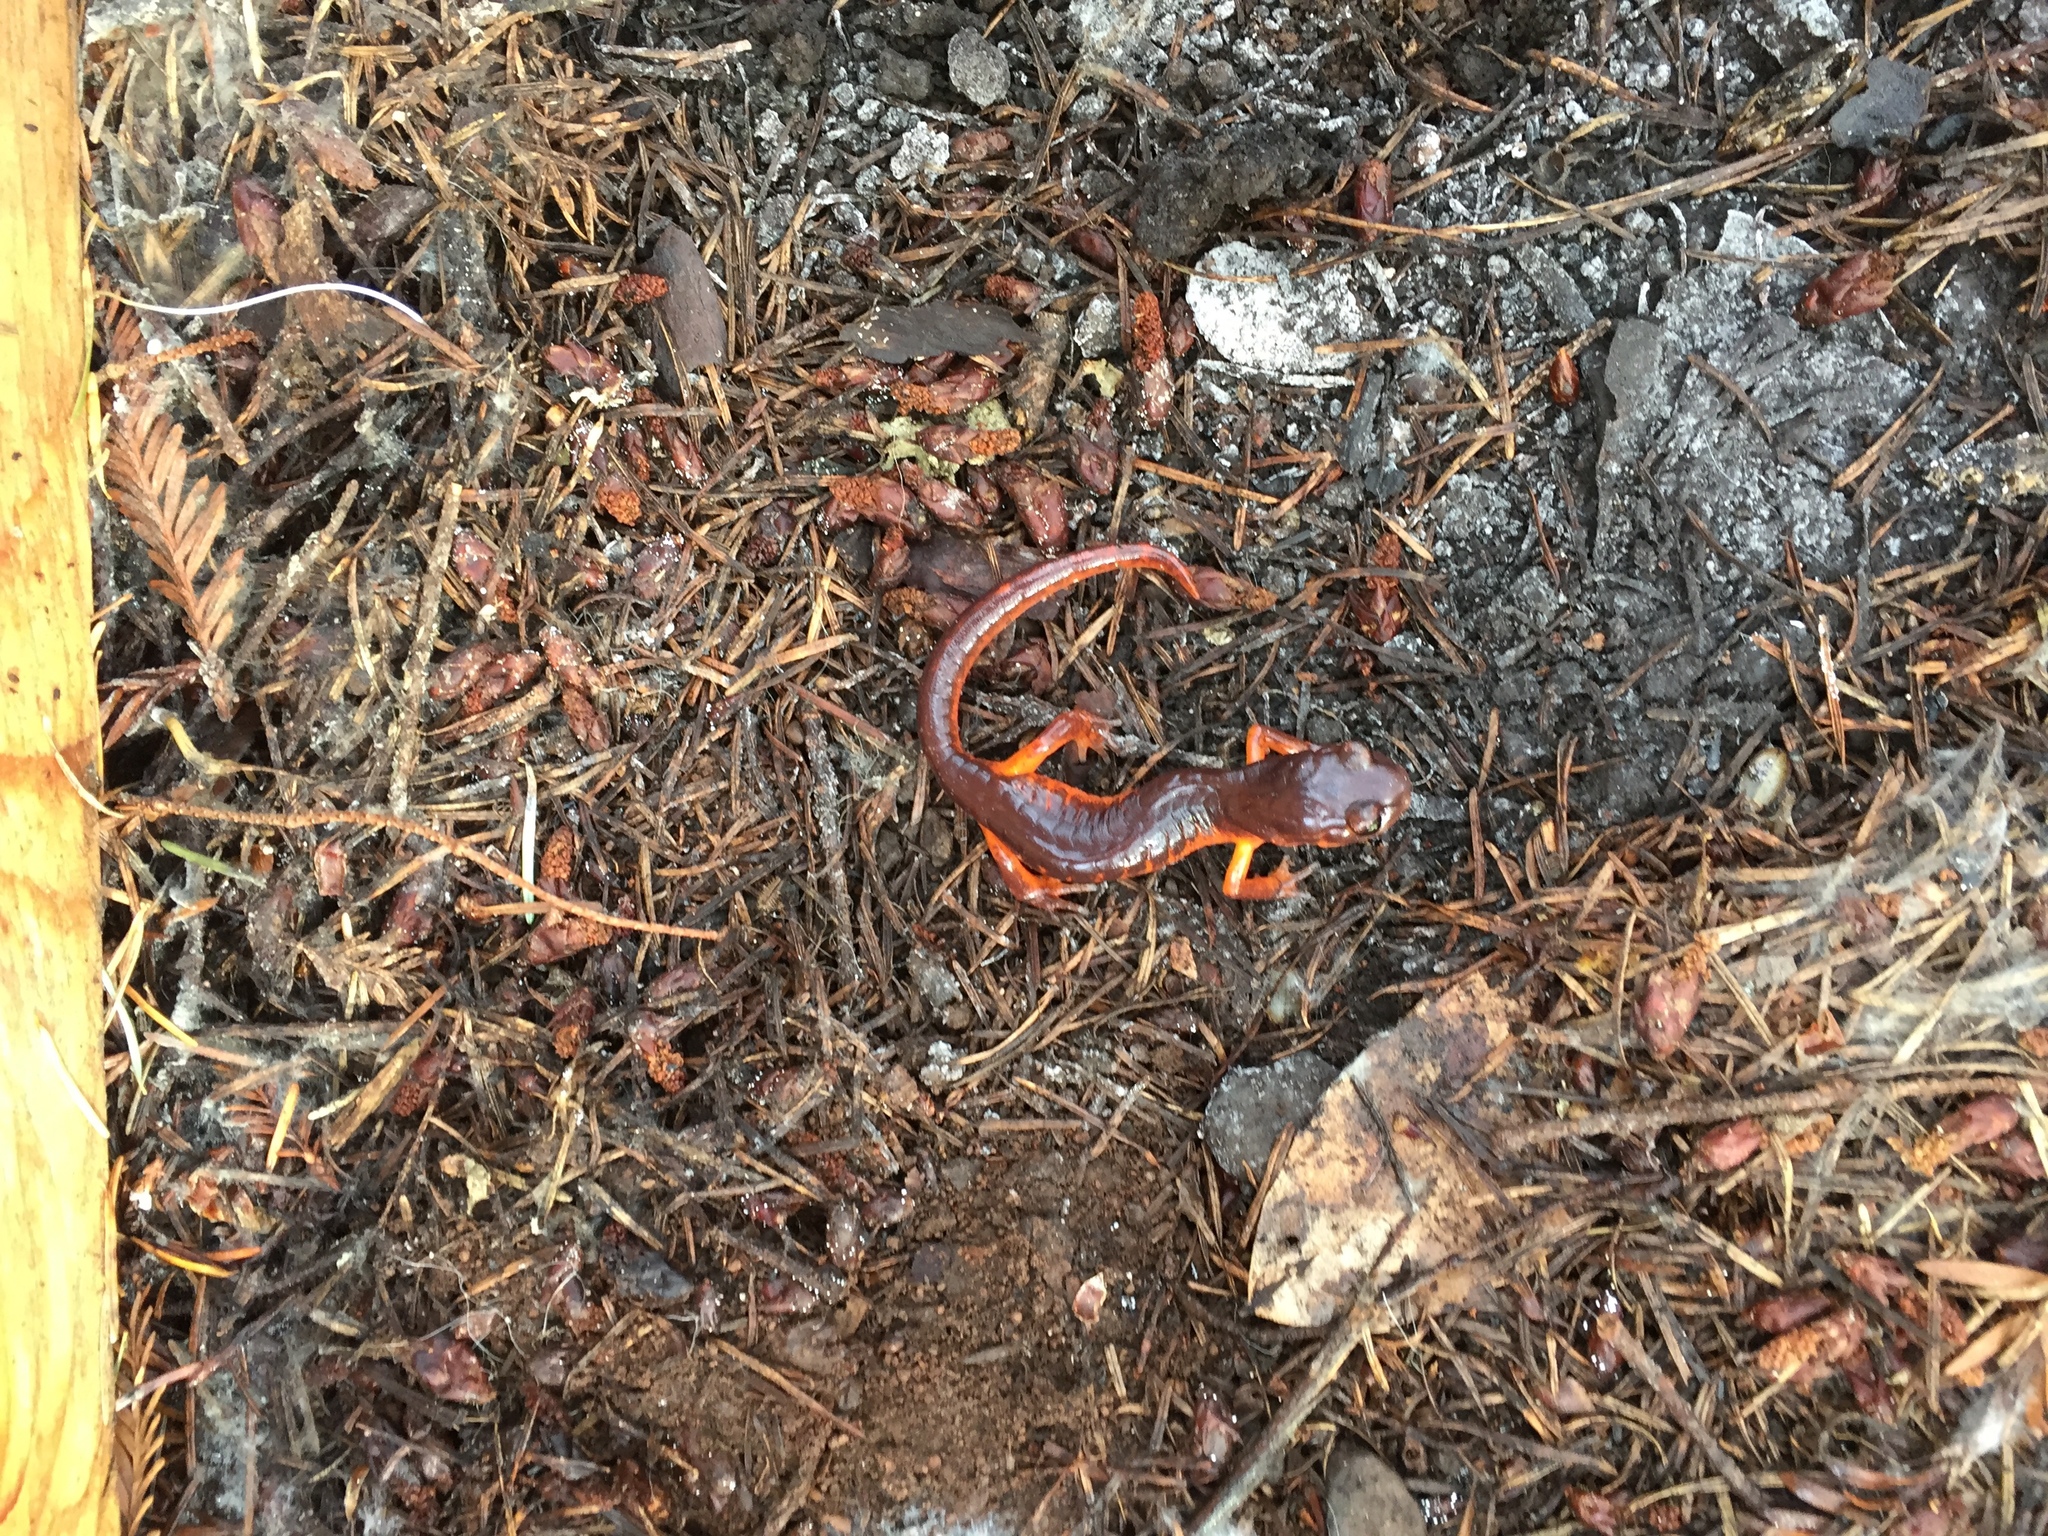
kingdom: Animalia
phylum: Chordata
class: Amphibia
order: Caudata
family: Plethodontidae
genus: Ensatina
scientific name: Ensatina eschscholtzii
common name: Ensatina
